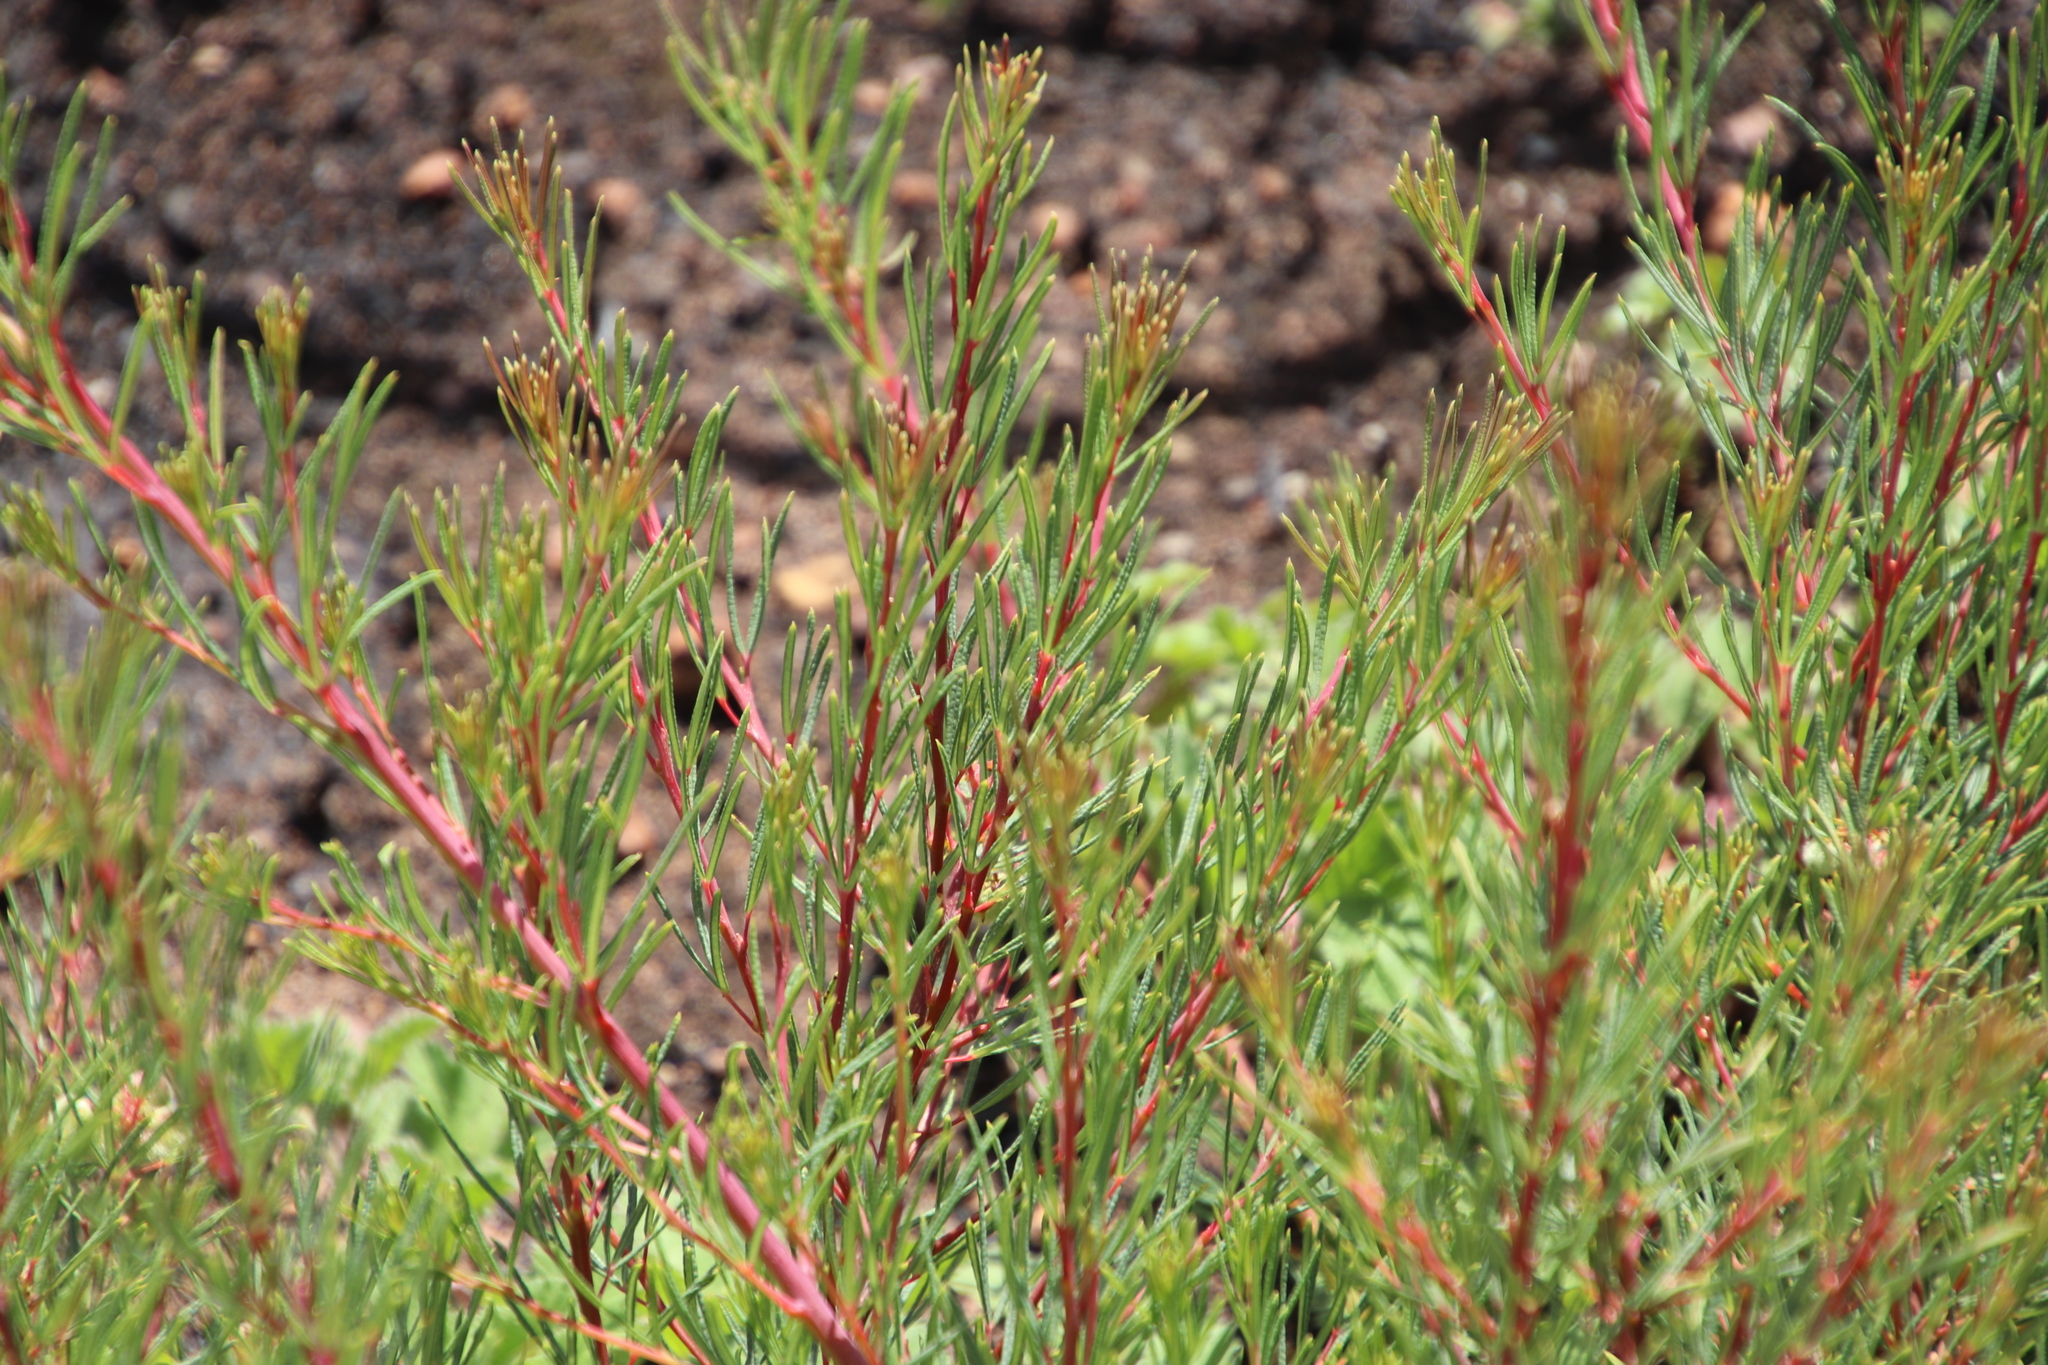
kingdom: Plantae
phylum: Tracheophyta
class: Magnoliopsida
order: Sapindales
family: Anacardiaceae
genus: Searsia
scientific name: Searsia rosmarinifolia
